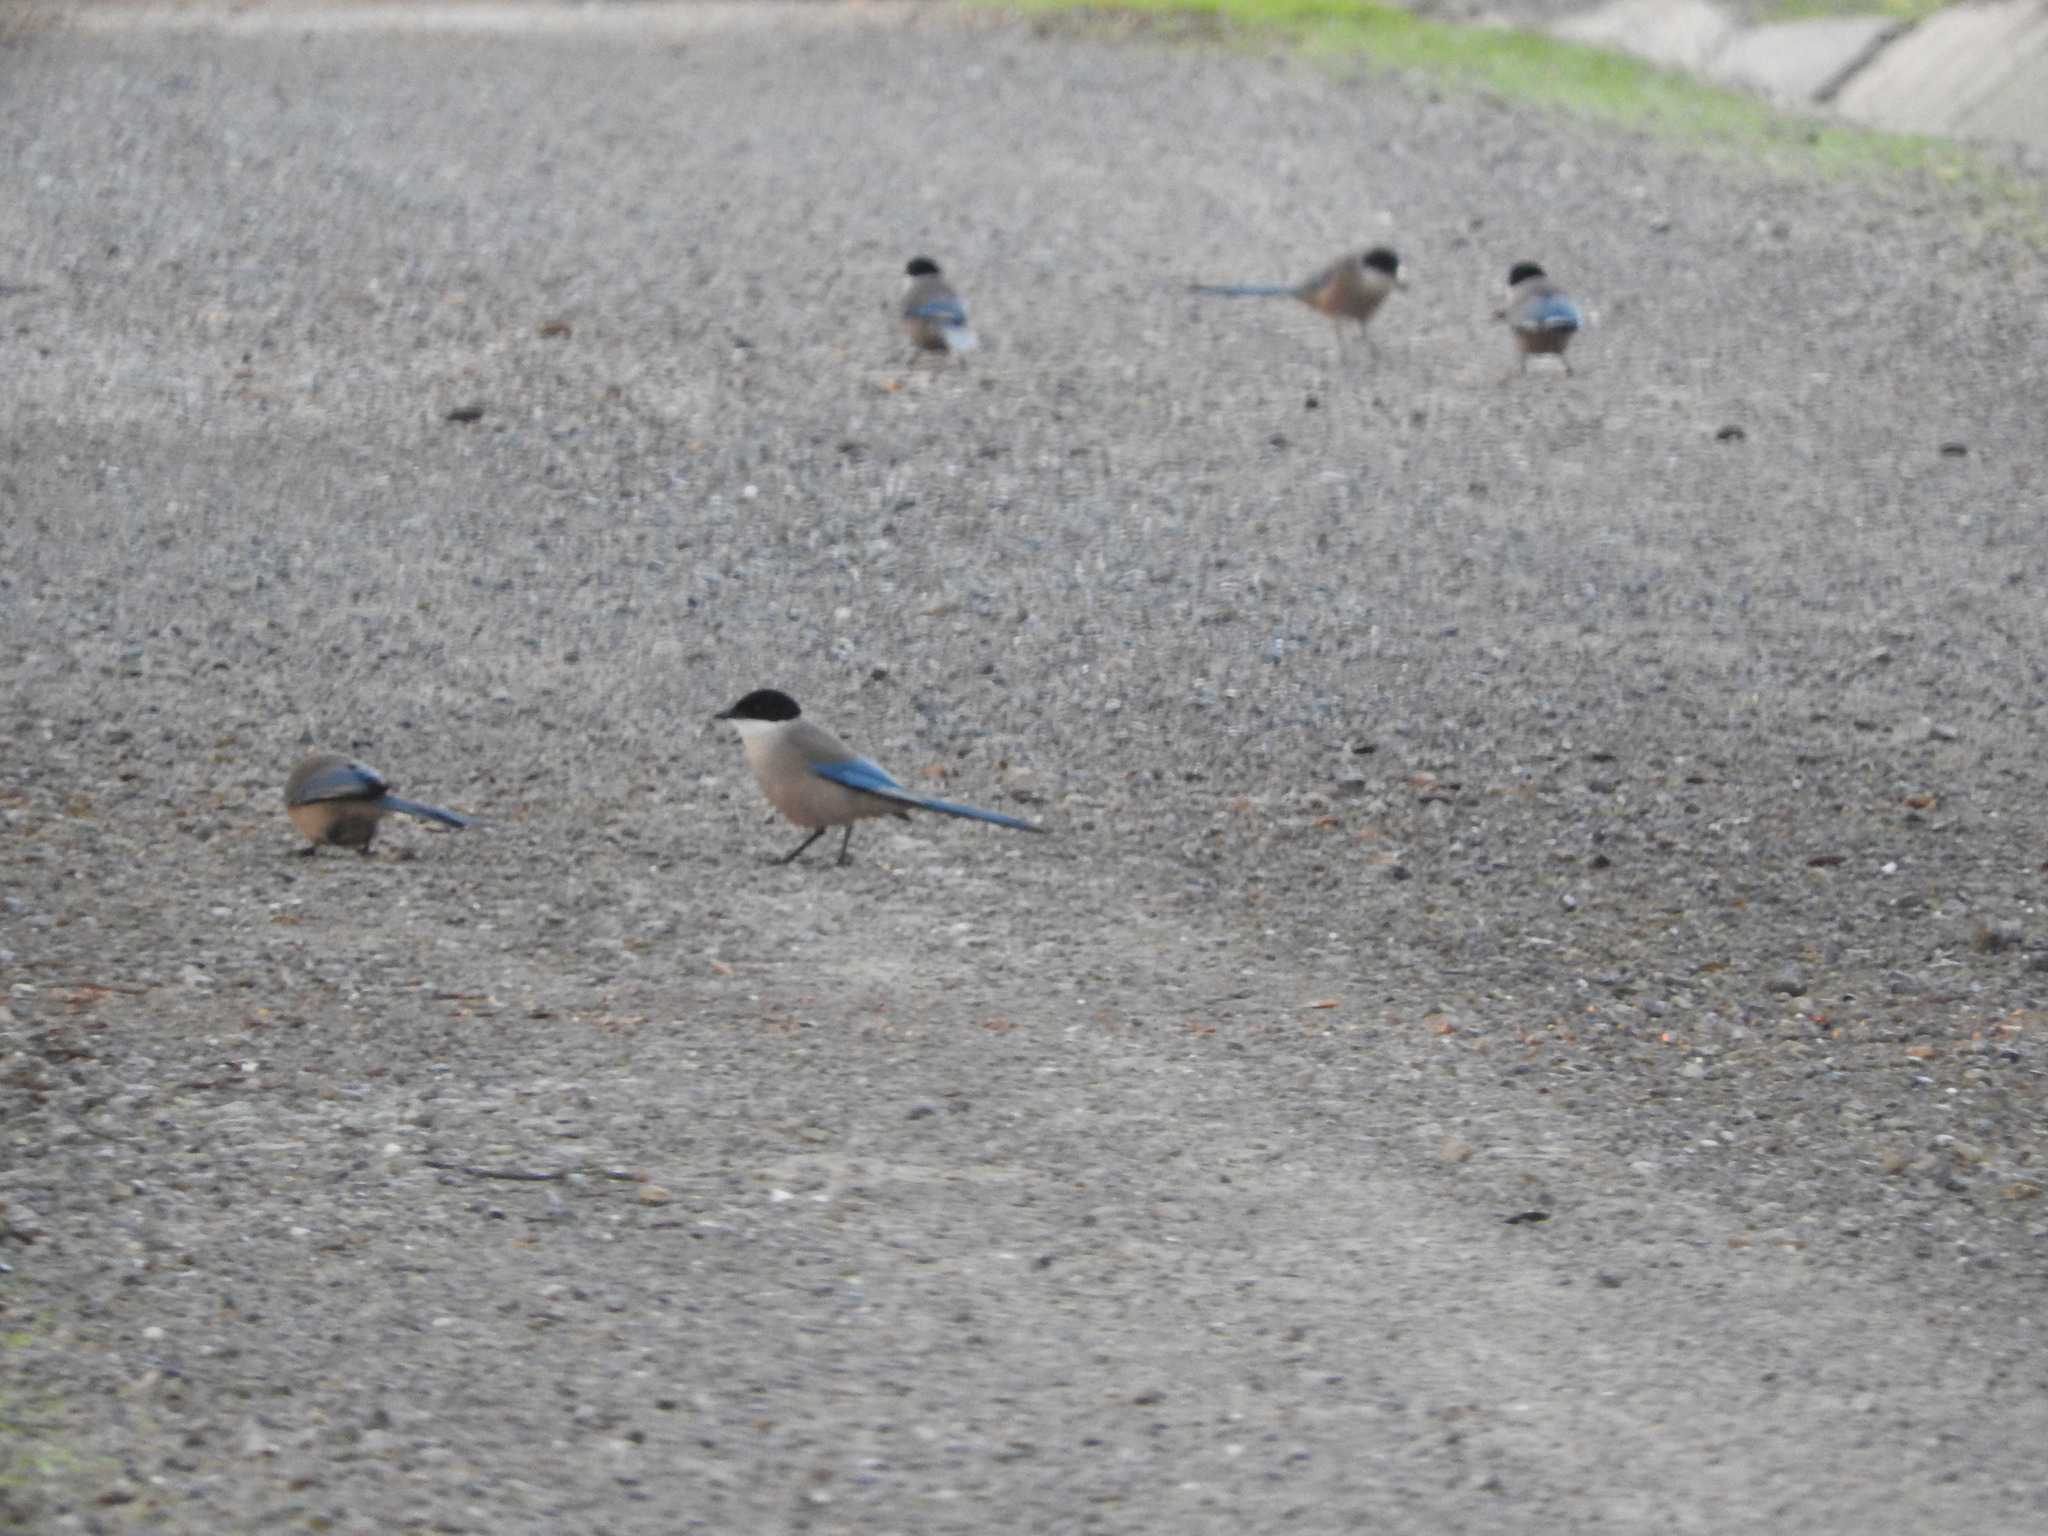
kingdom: Animalia
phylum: Chordata
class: Aves
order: Passeriformes
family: Corvidae
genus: Cyanopica
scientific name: Cyanopica cooki
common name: Iberian magpie
